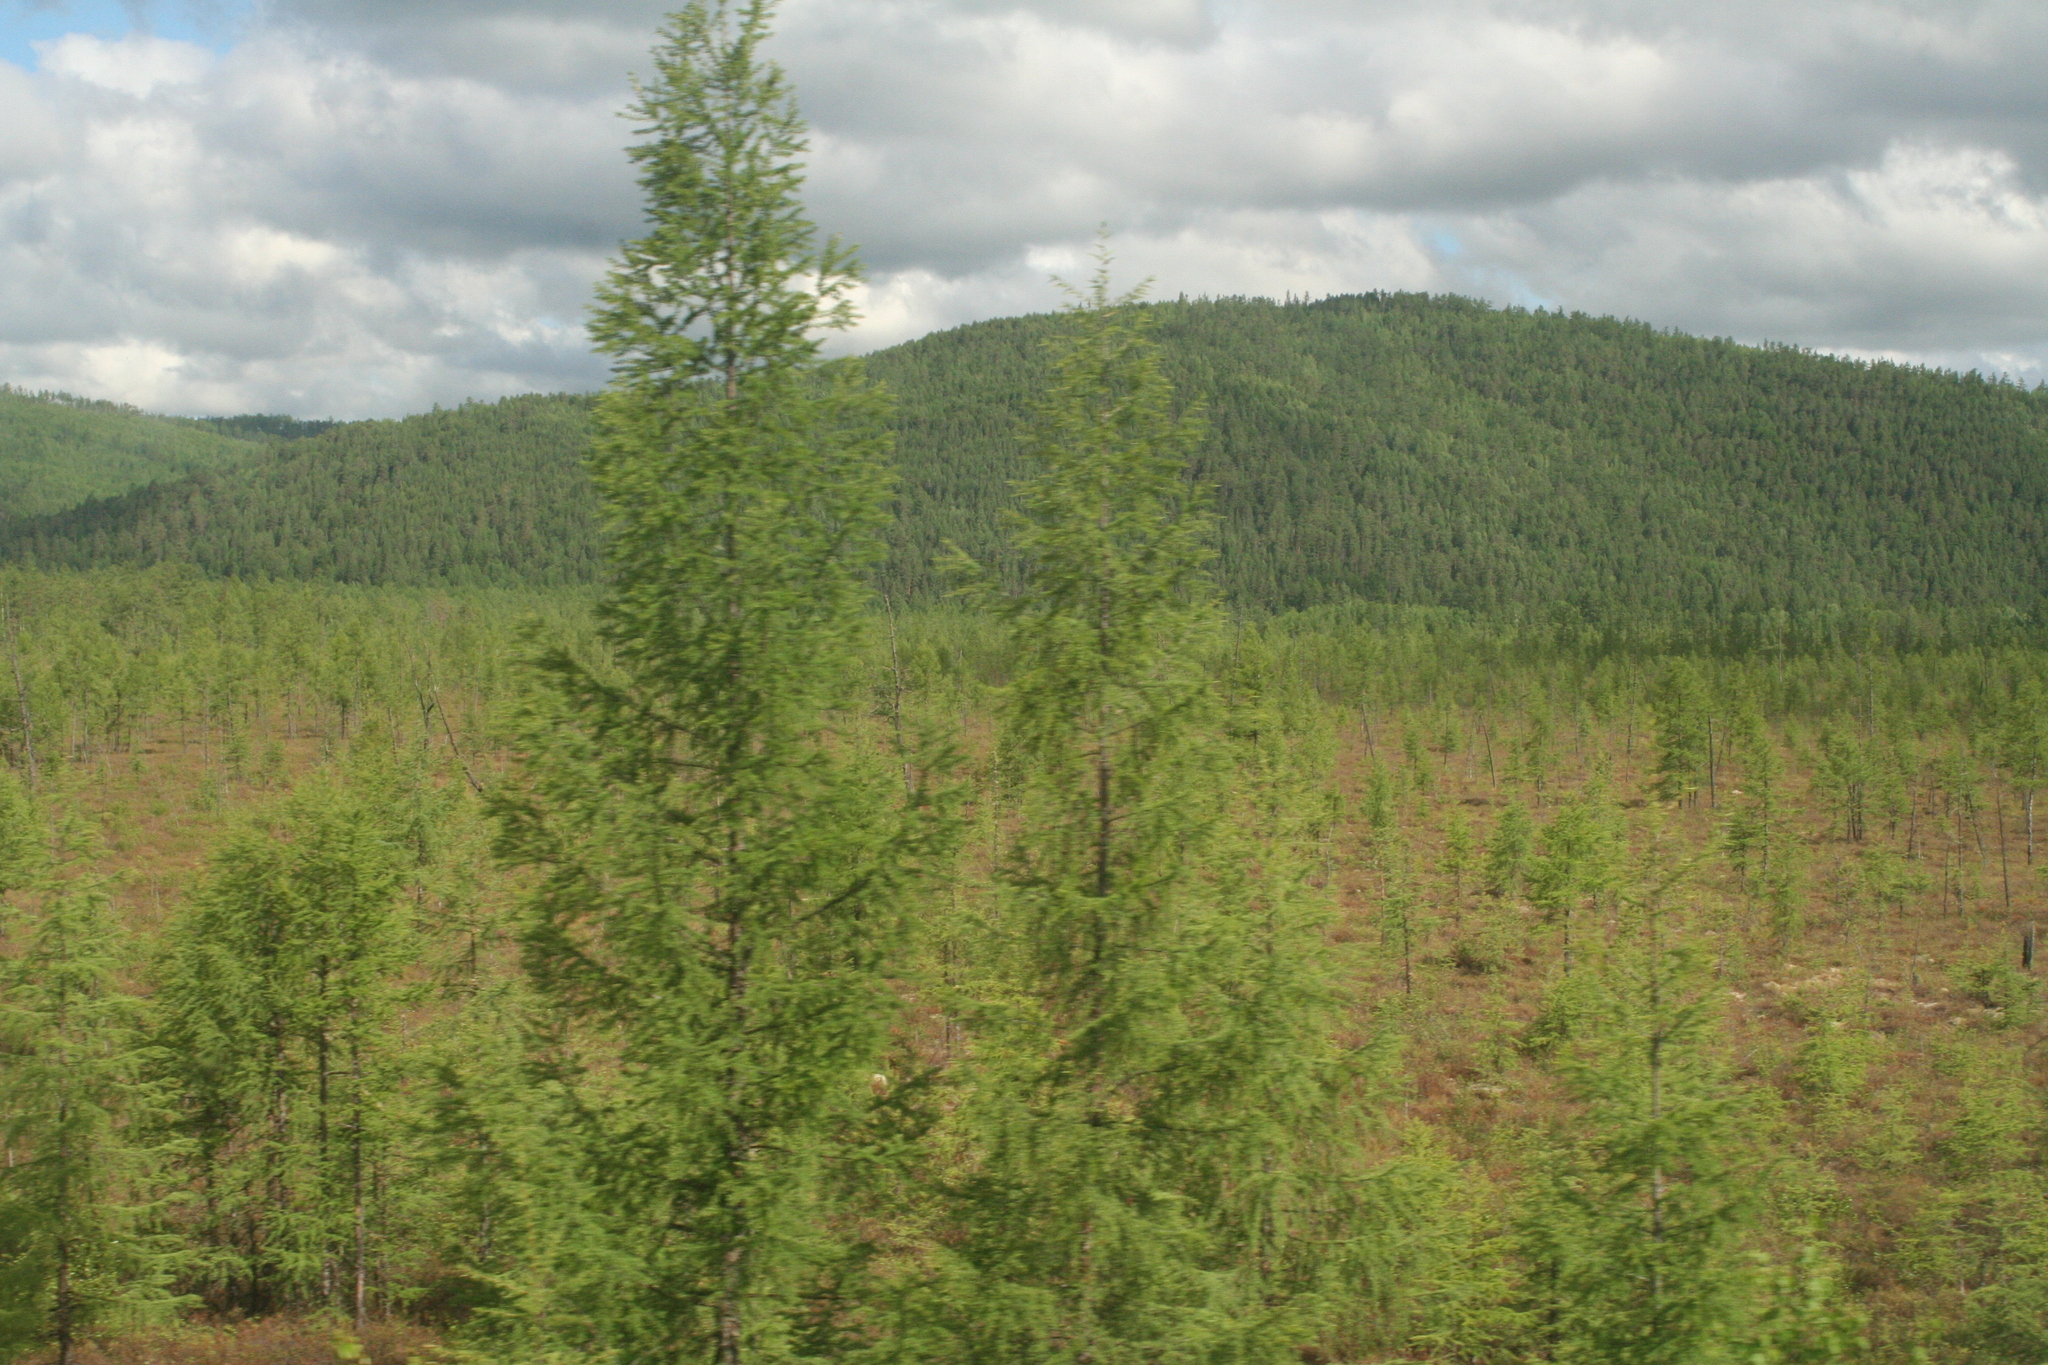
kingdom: Plantae
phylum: Tracheophyta
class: Pinopsida
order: Pinales
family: Pinaceae
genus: Larix
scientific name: Larix gmelinii
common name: Dahurian larch
